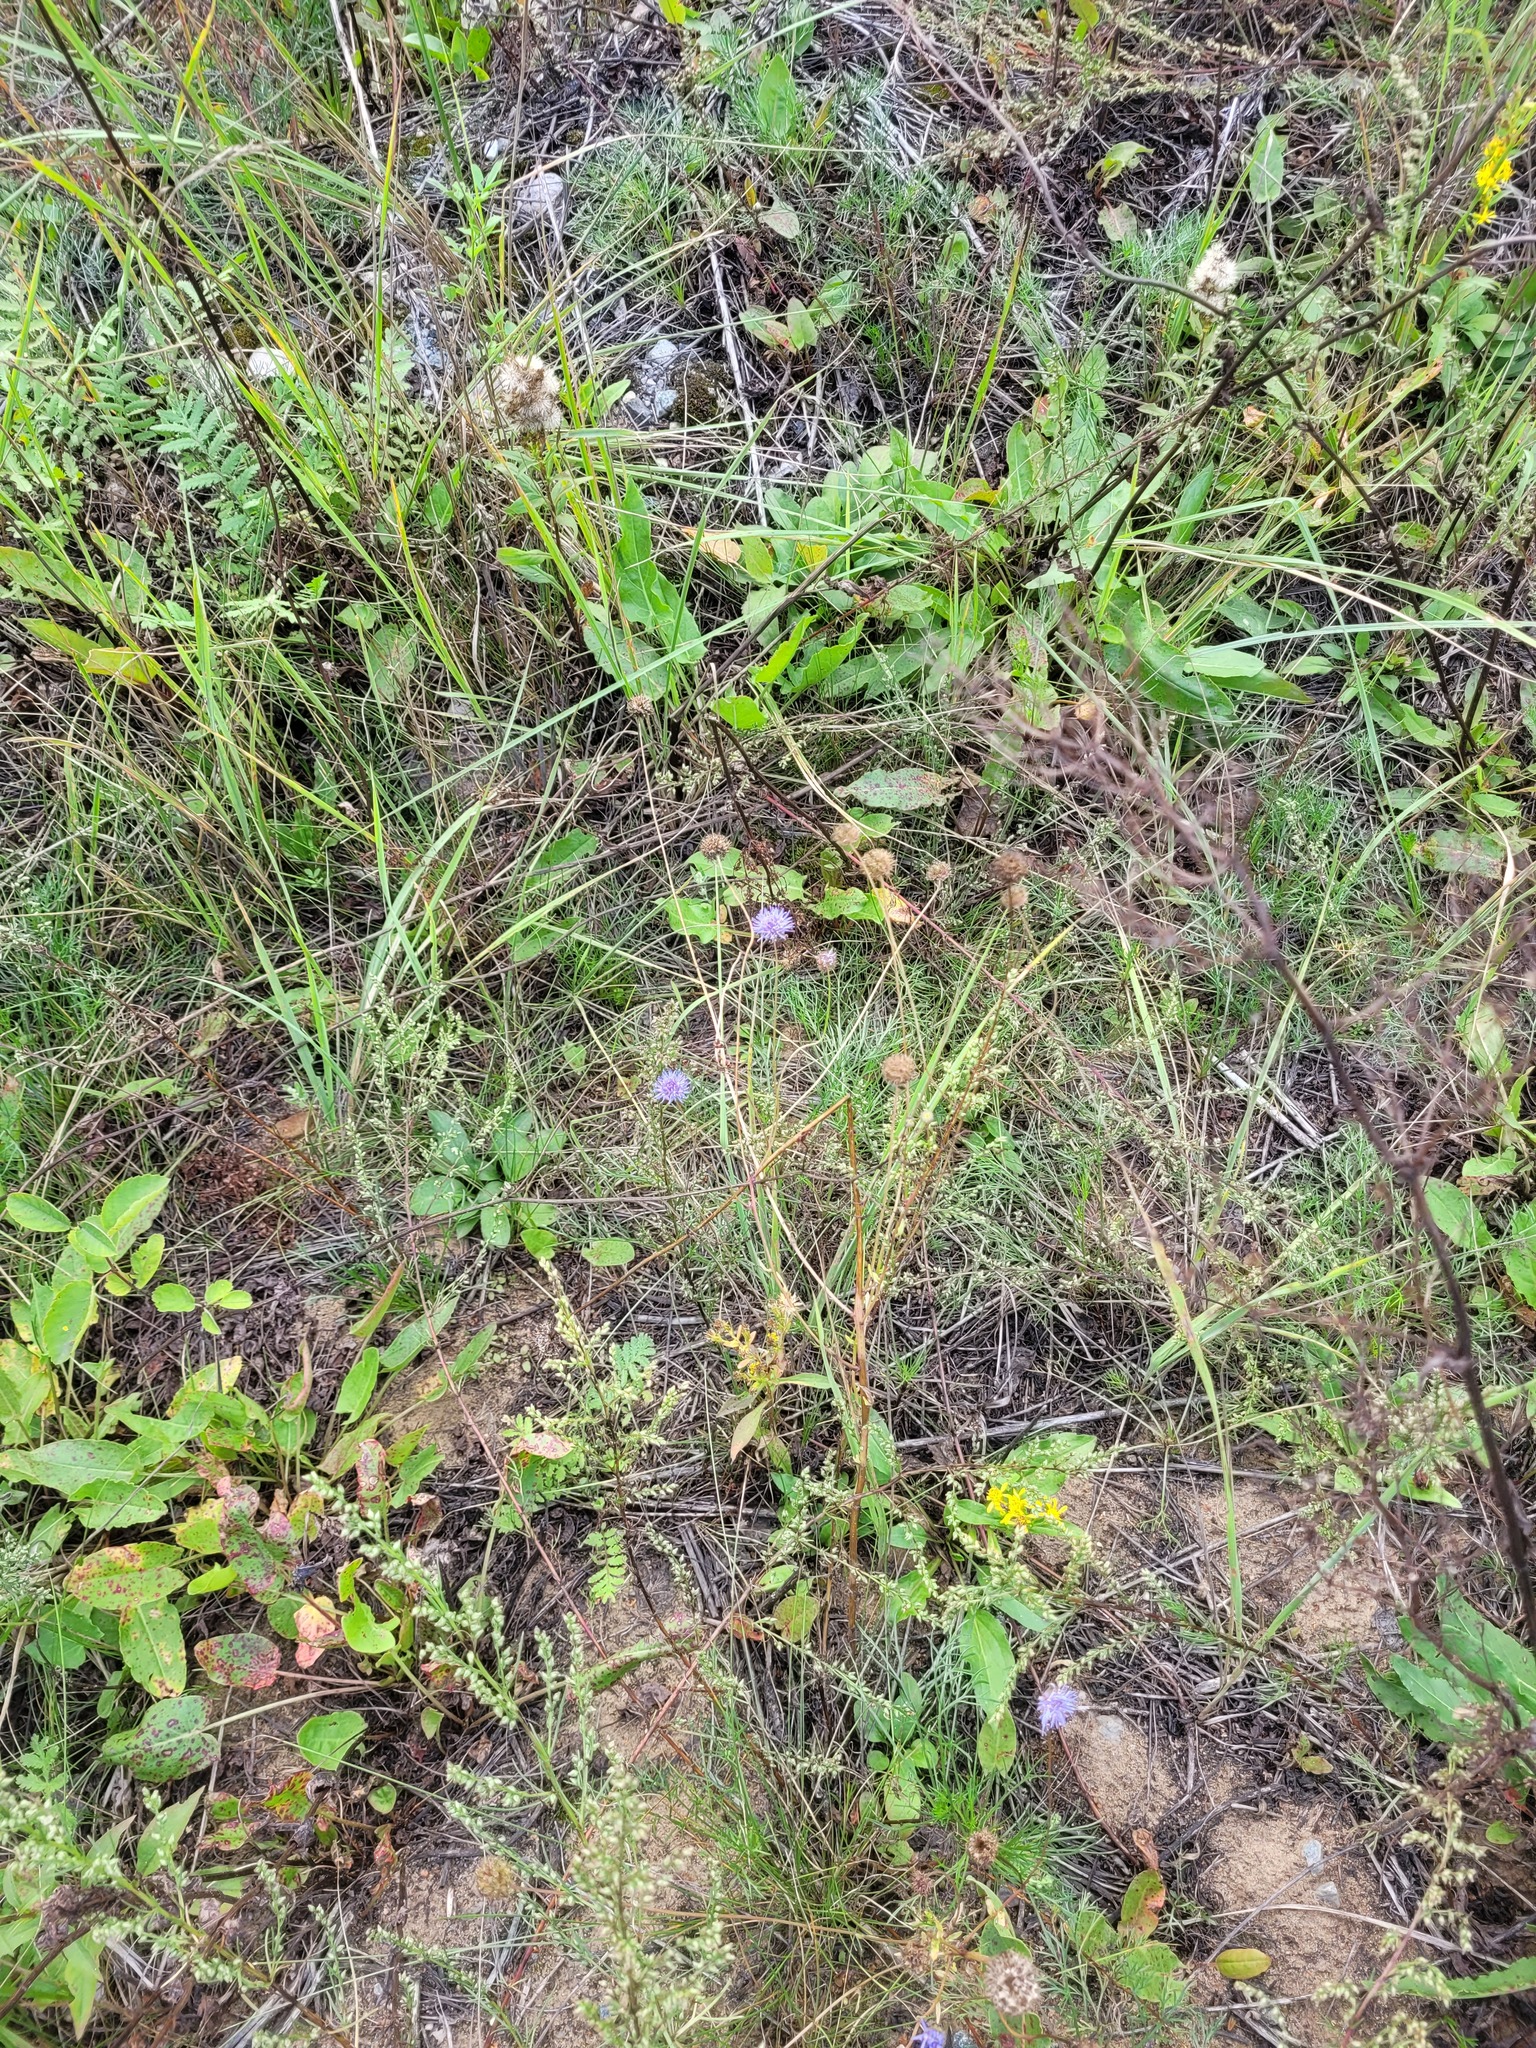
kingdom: Plantae
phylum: Tracheophyta
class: Magnoliopsida
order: Asterales
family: Campanulaceae
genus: Jasione
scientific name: Jasione montana
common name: Sheep's-bit
